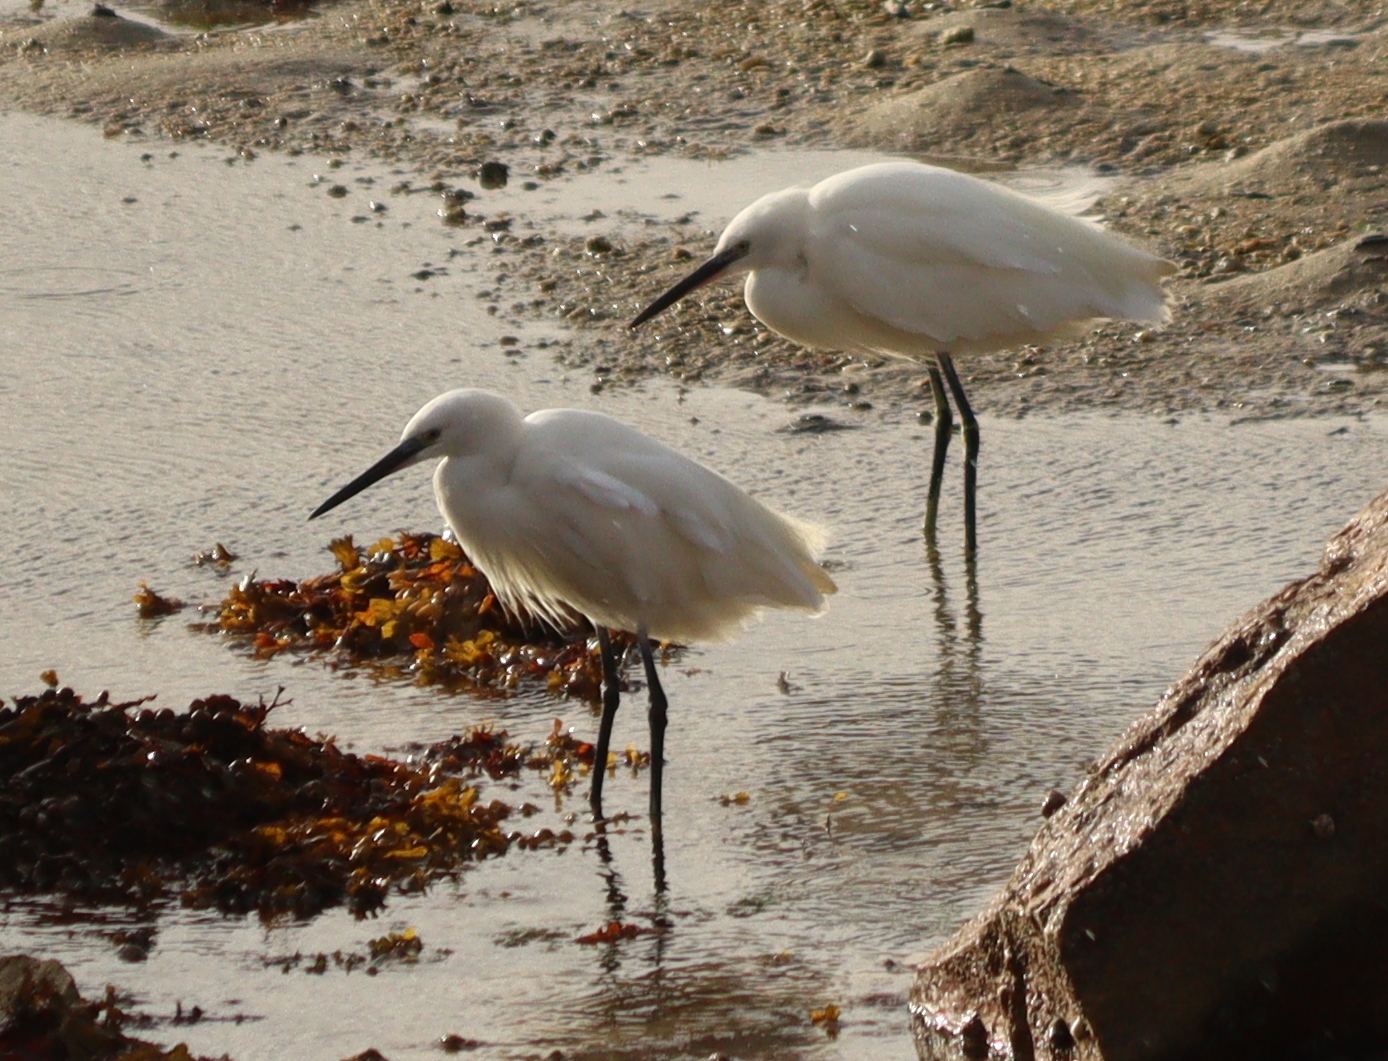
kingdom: Animalia
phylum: Chordata
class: Aves
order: Pelecaniformes
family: Ardeidae
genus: Egretta
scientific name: Egretta garzetta
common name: Little egret
